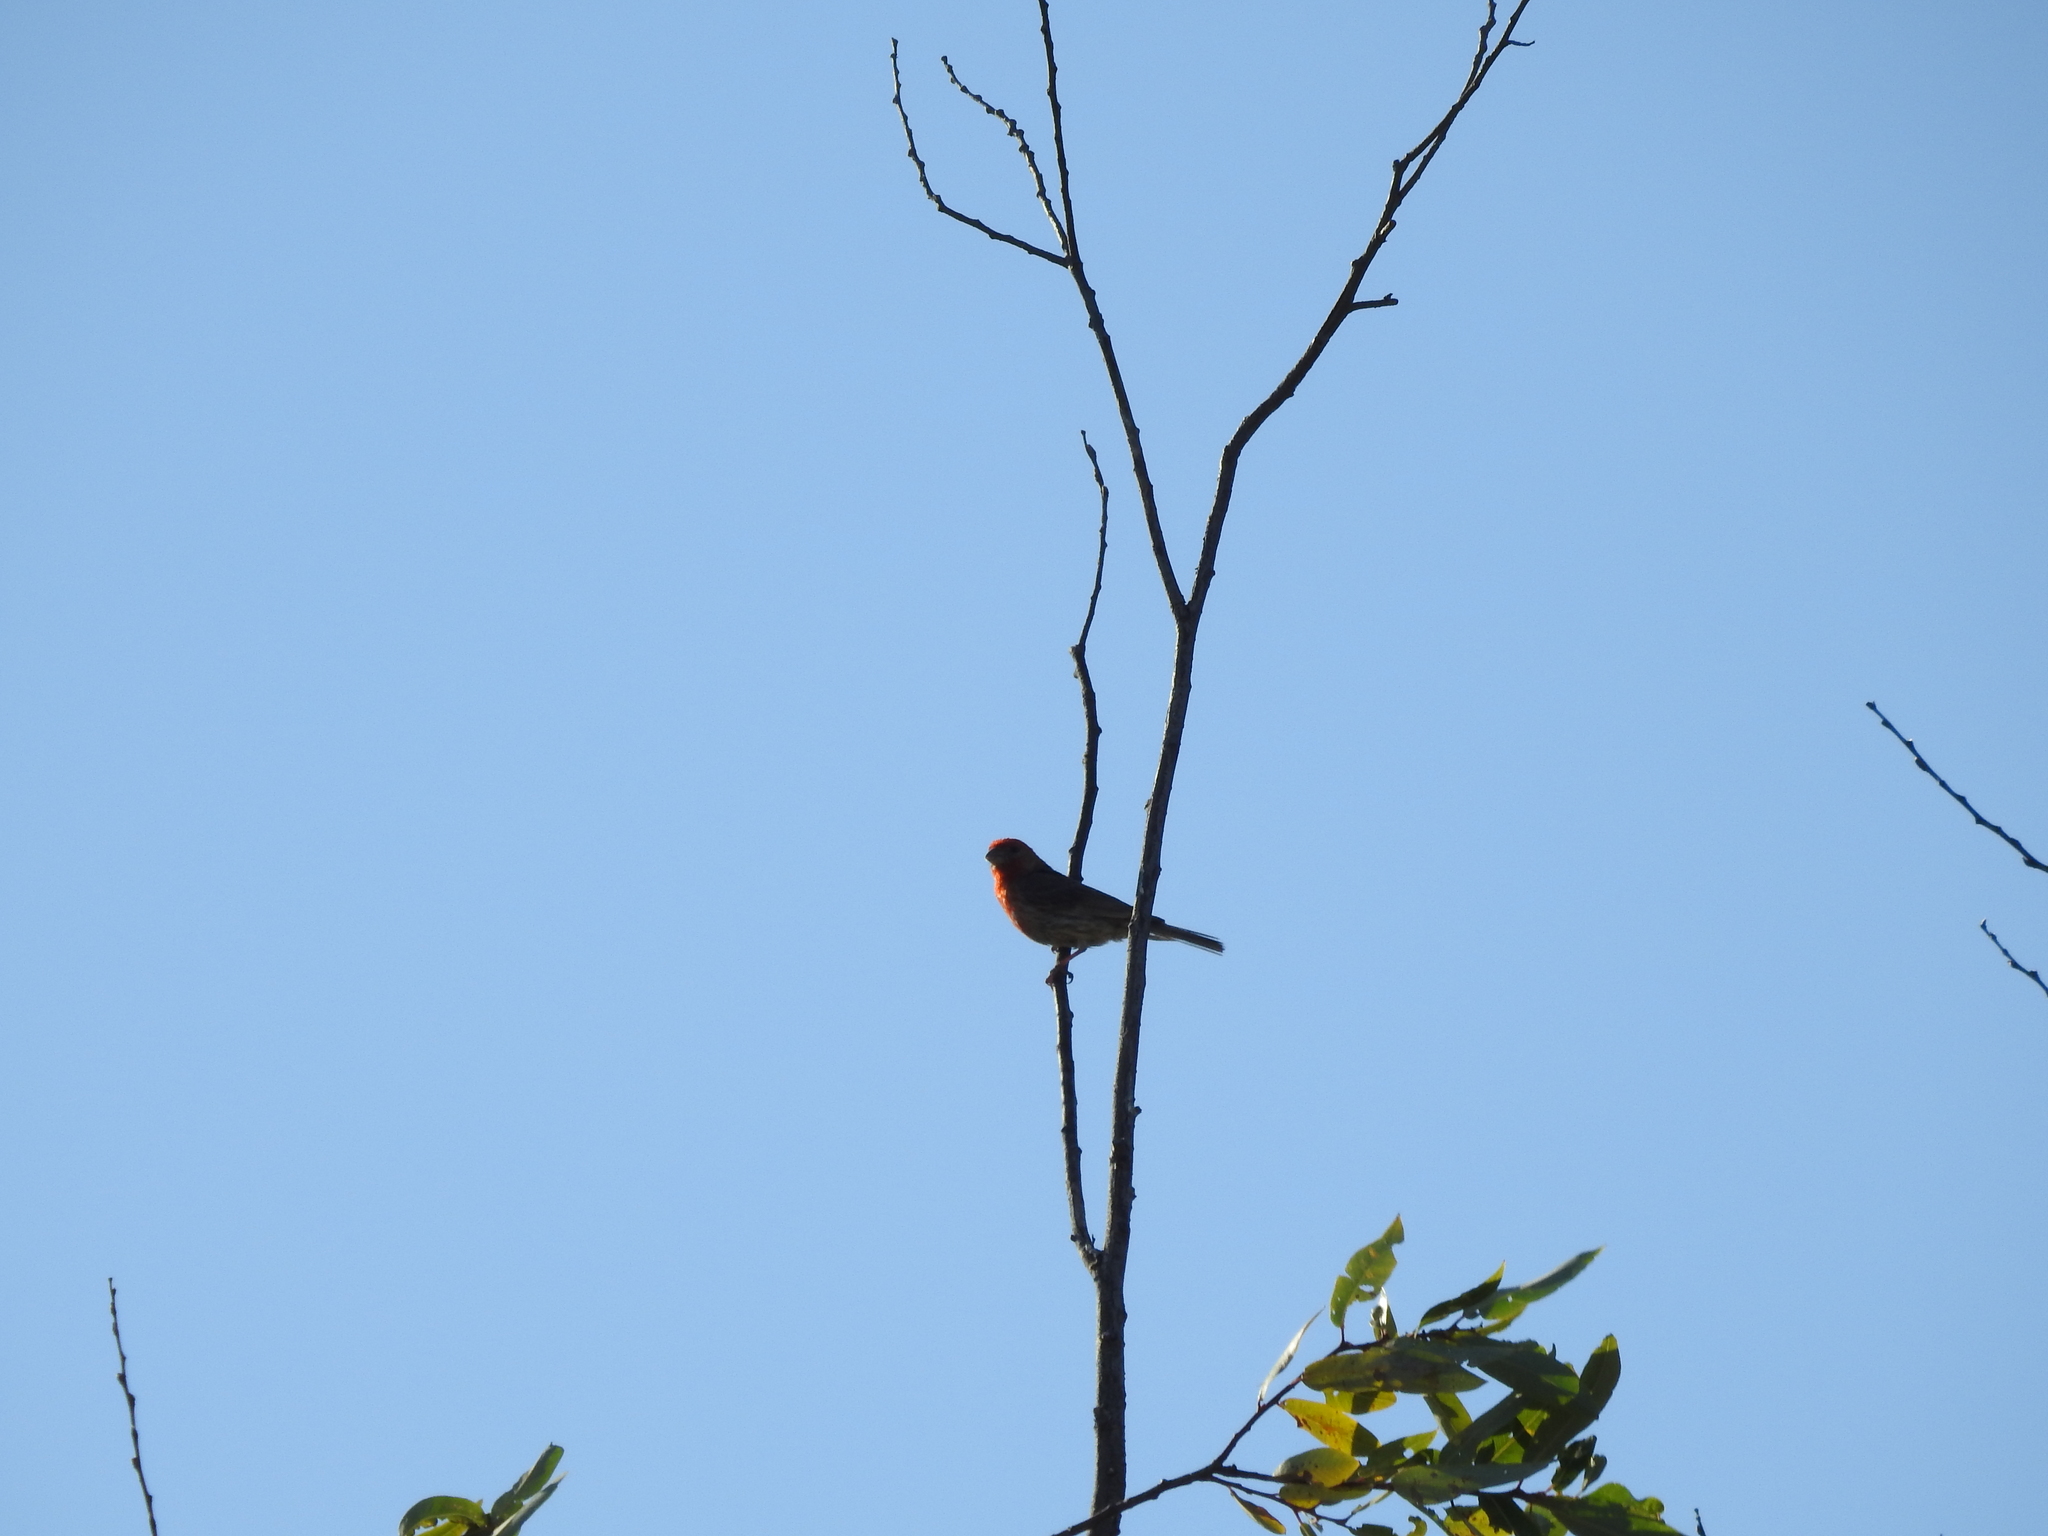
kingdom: Animalia
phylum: Chordata
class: Aves
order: Passeriformes
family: Fringillidae
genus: Haemorhous
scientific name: Haemorhous mexicanus
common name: House finch
